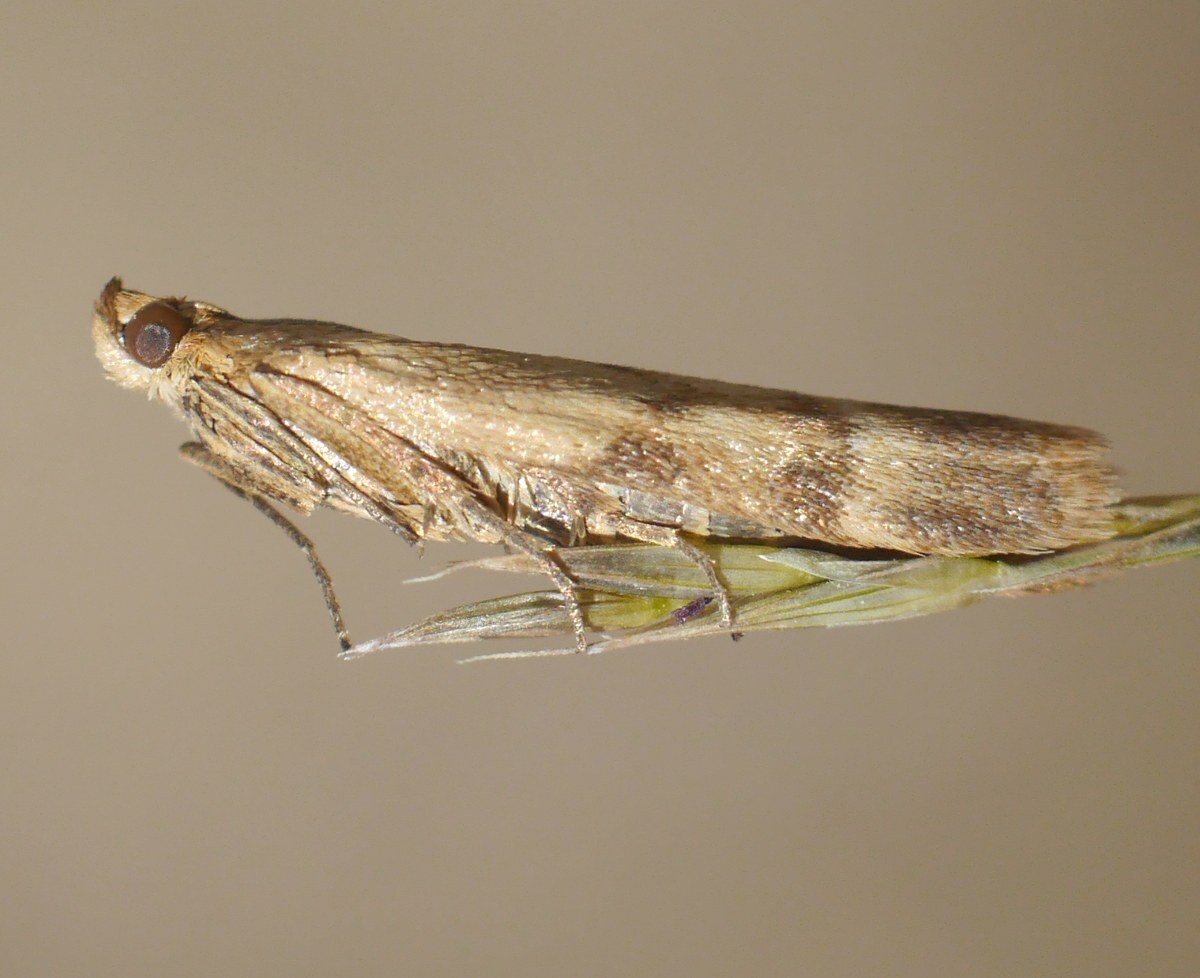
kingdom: Animalia
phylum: Arthropoda
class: Insecta
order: Lepidoptera
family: Pyralidae
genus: Homoeosoma
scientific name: Homoeosoma sinuella
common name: Twin-barred knot-horn
